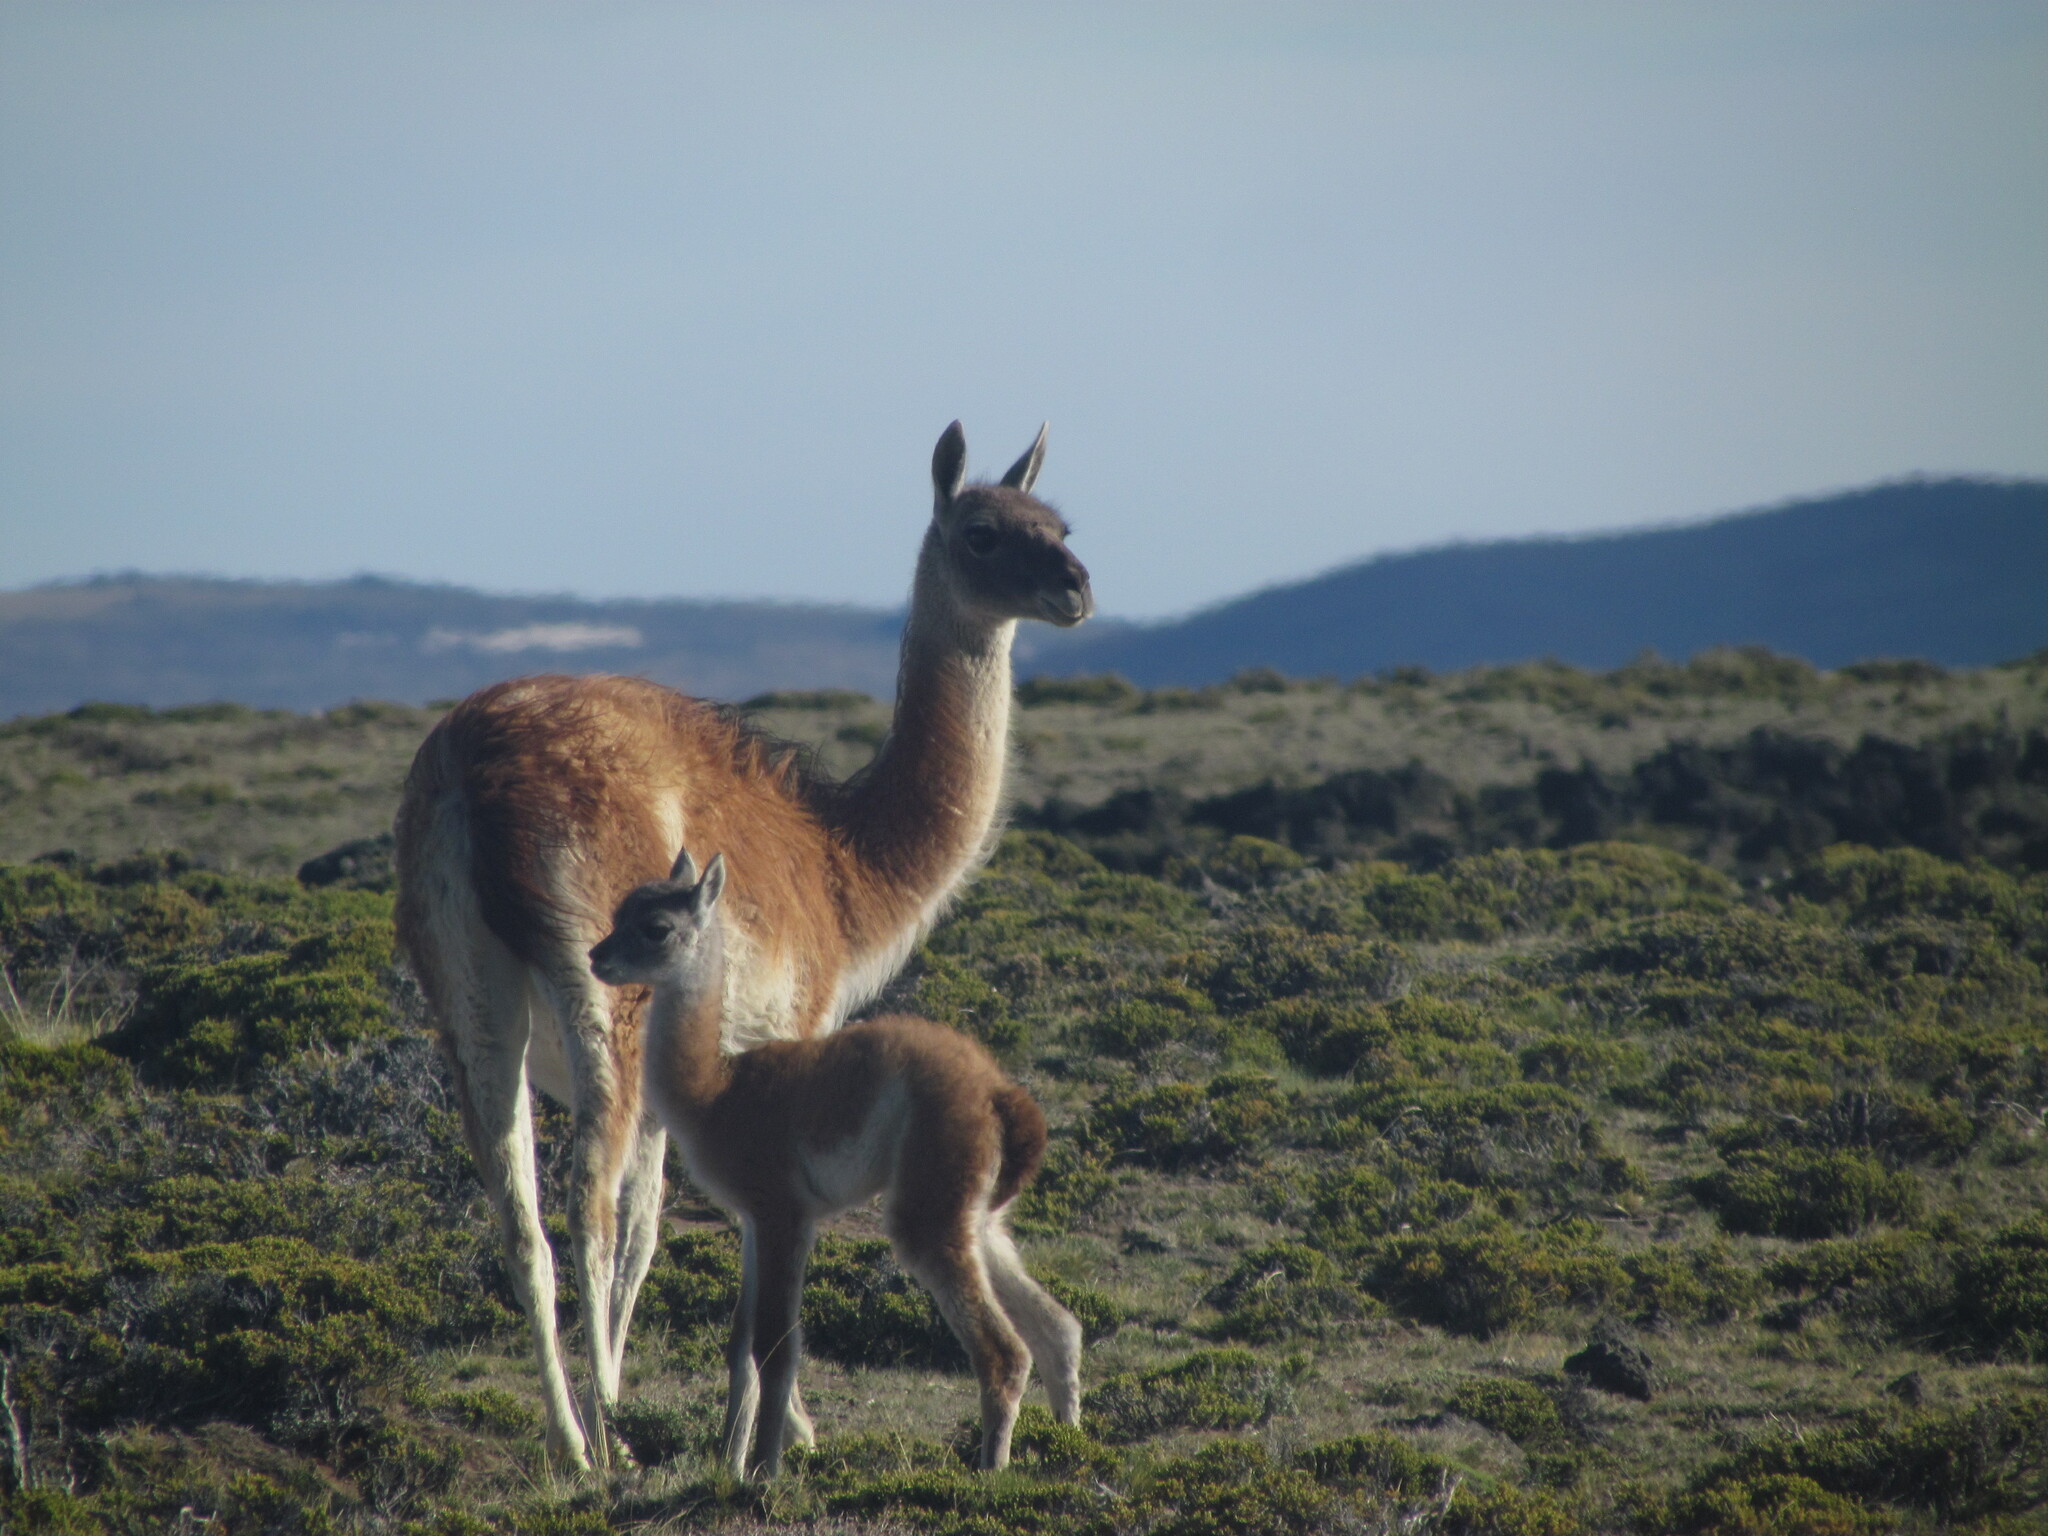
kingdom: Animalia
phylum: Chordata
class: Mammalia
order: Artiodactyla
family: Camelidae
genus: Lama
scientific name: Lama glama
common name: Llama
